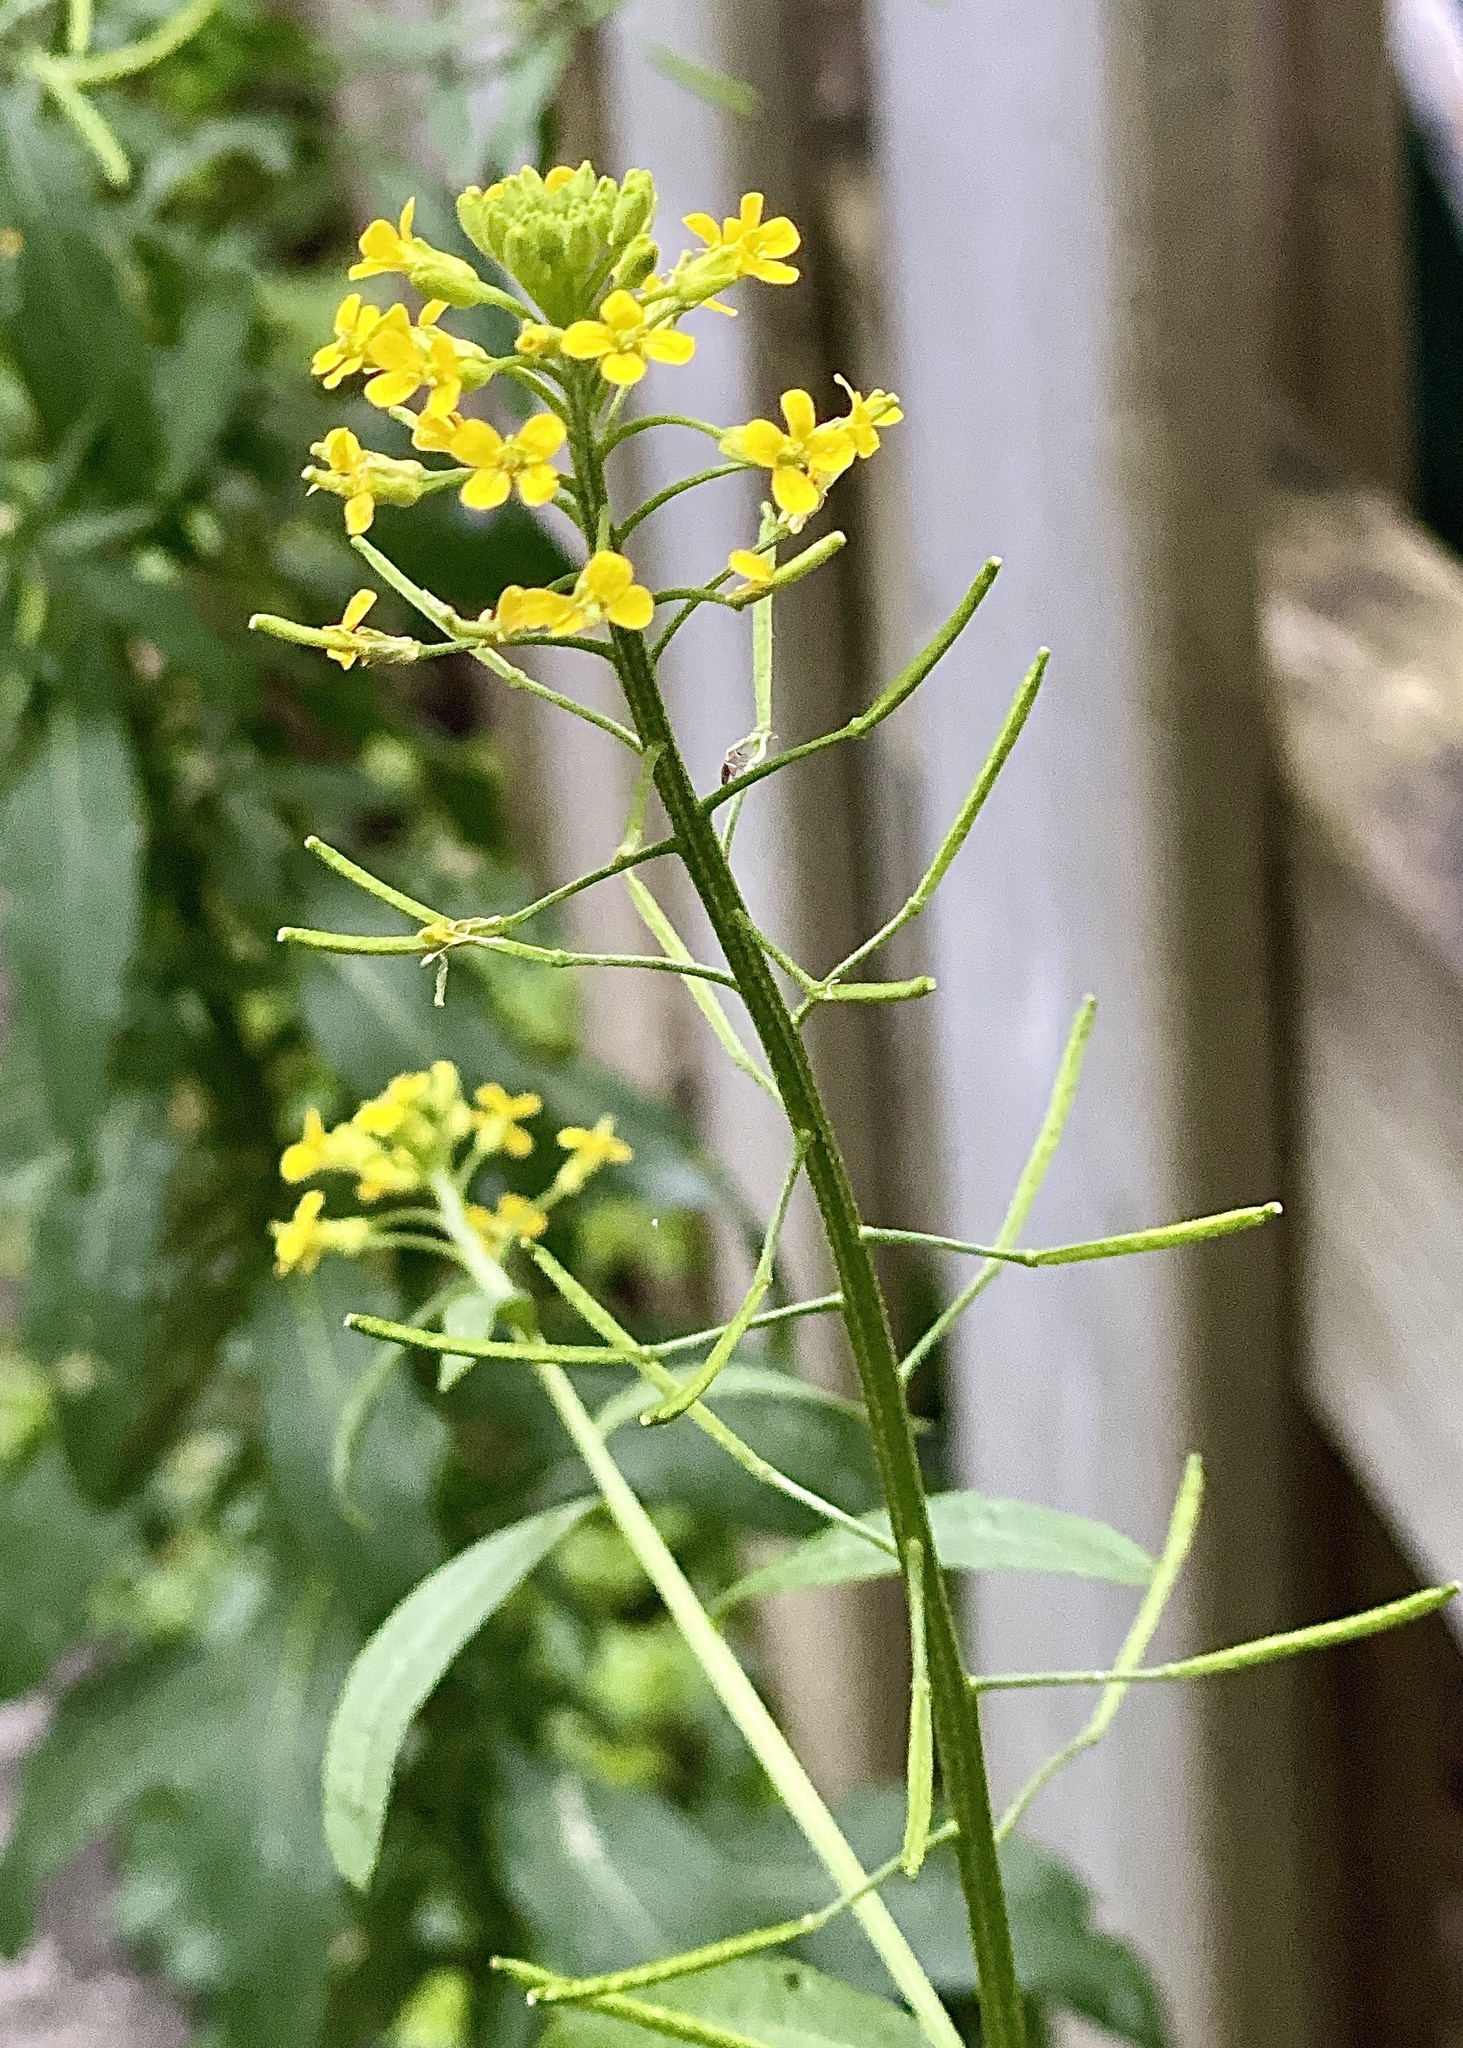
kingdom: Plantae
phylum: Tracheophyta
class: Magnoliopsida
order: Brassicales
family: Brassicaceae
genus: Erysimum
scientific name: Erysimum cheiranthoides
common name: Treacle mustard
